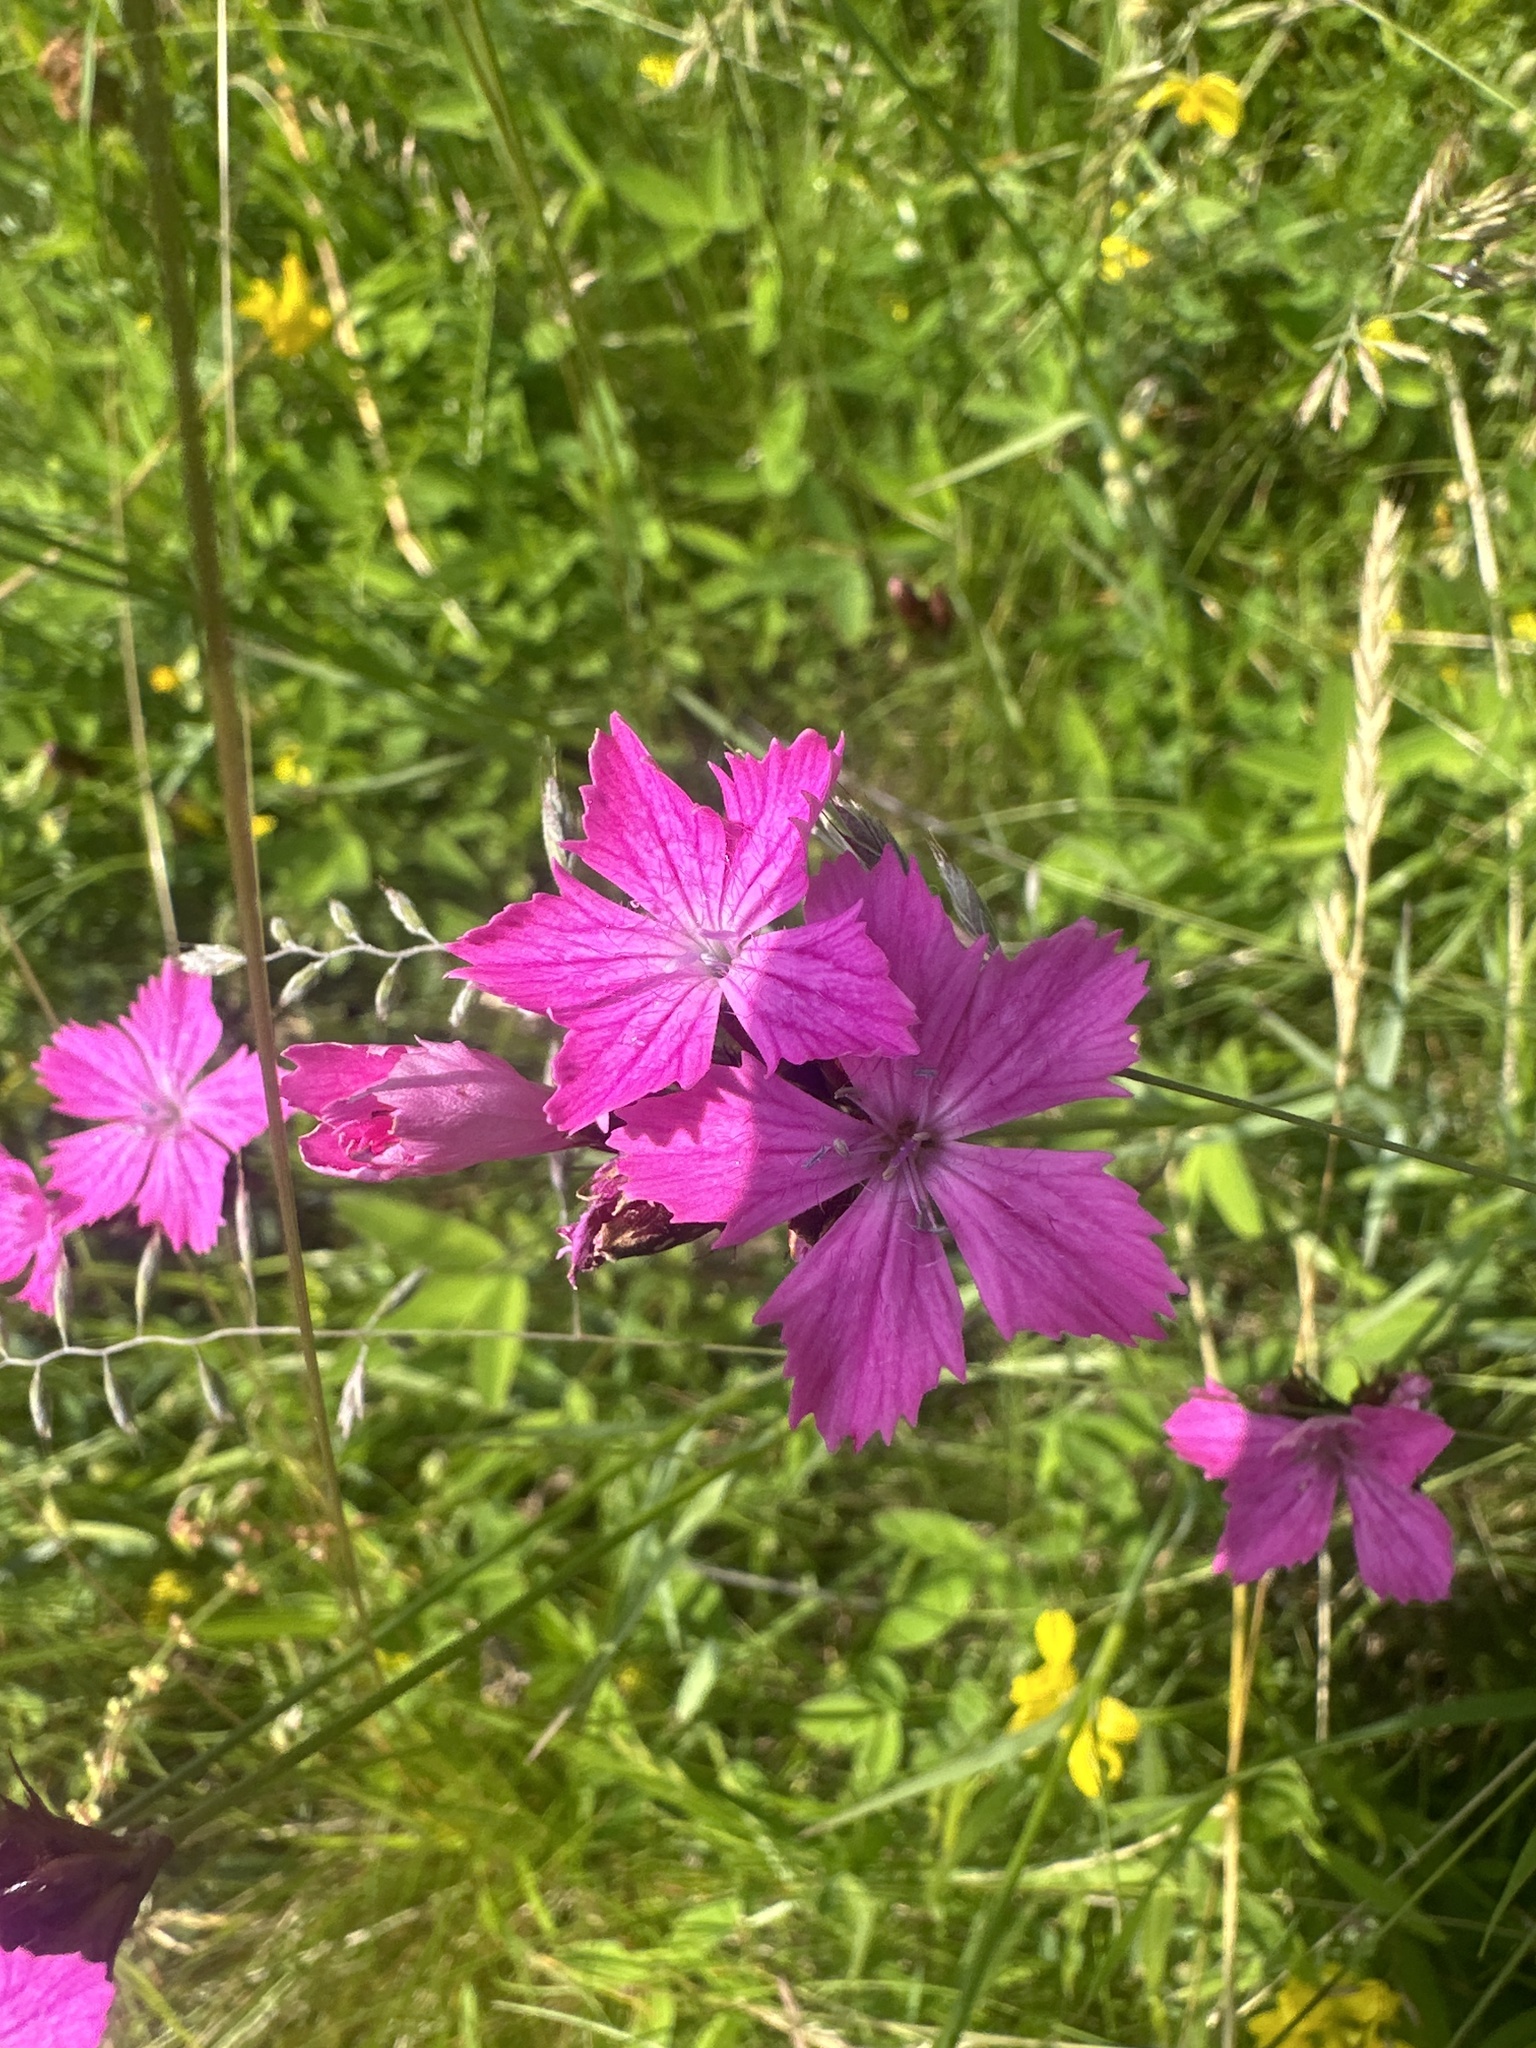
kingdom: Plantae
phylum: Tracheophyta
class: Magnoliopsida
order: Caryophyllales
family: Caryophyllaceae
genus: Dianthus
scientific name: Dianthus carthusianorum
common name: Carthusian pink
